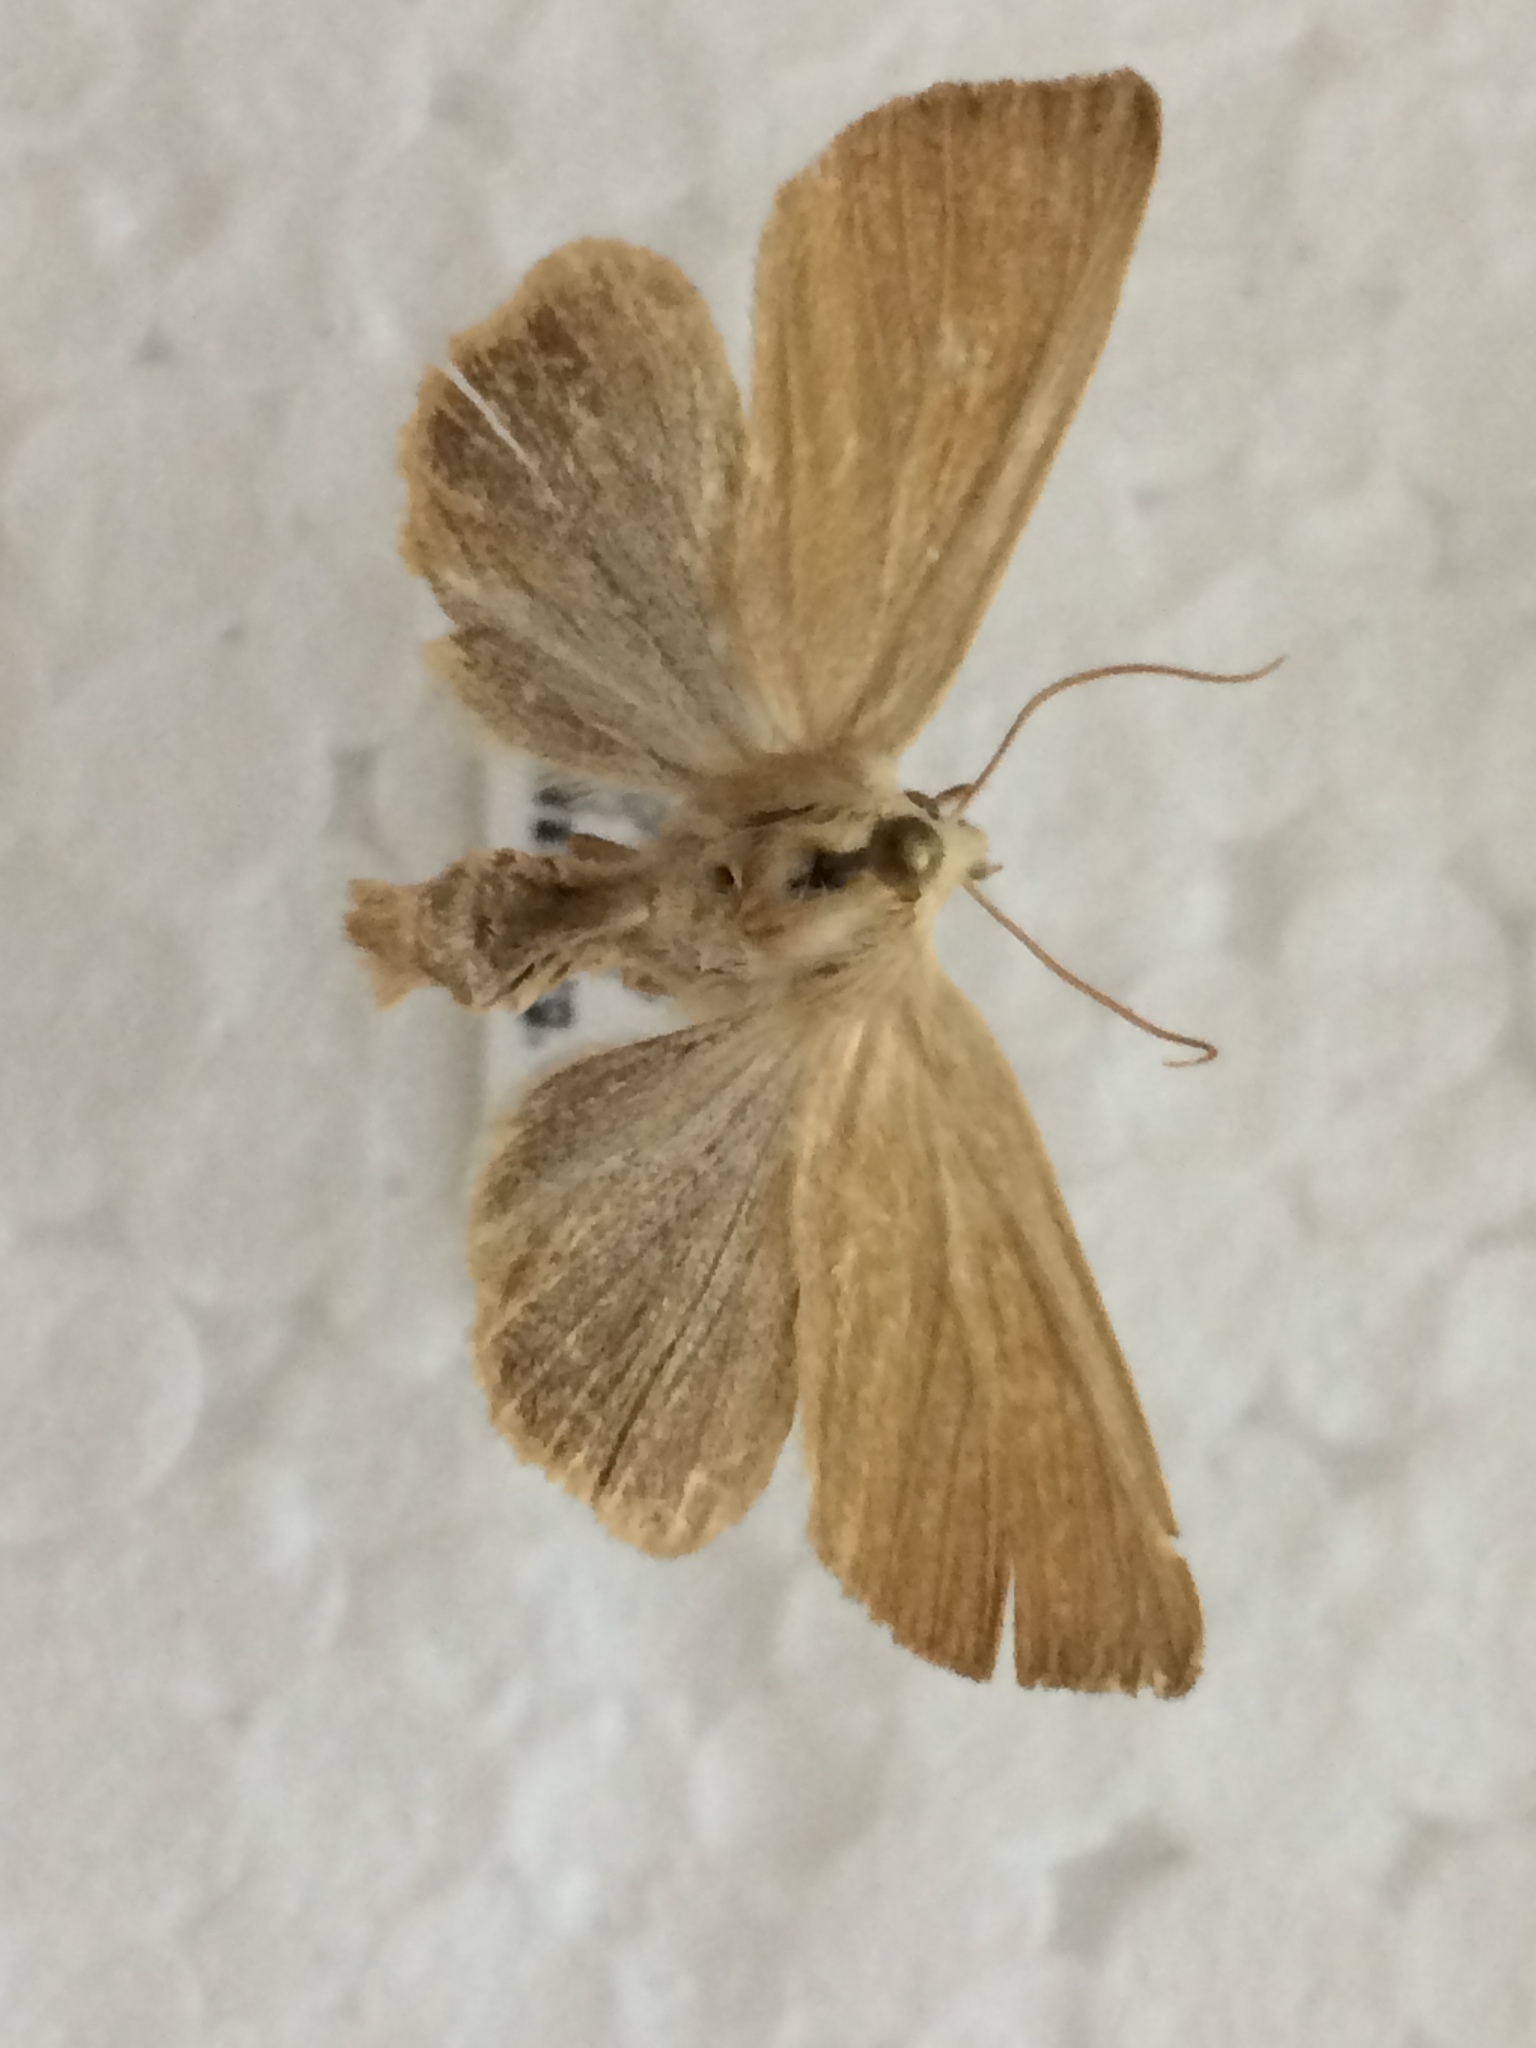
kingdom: Animalia
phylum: Arthropoda
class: Insecta
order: Lepidoptera
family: Noctuidae
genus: Arenostola
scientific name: Arenostola phragmitidis
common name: Fen wainscot
